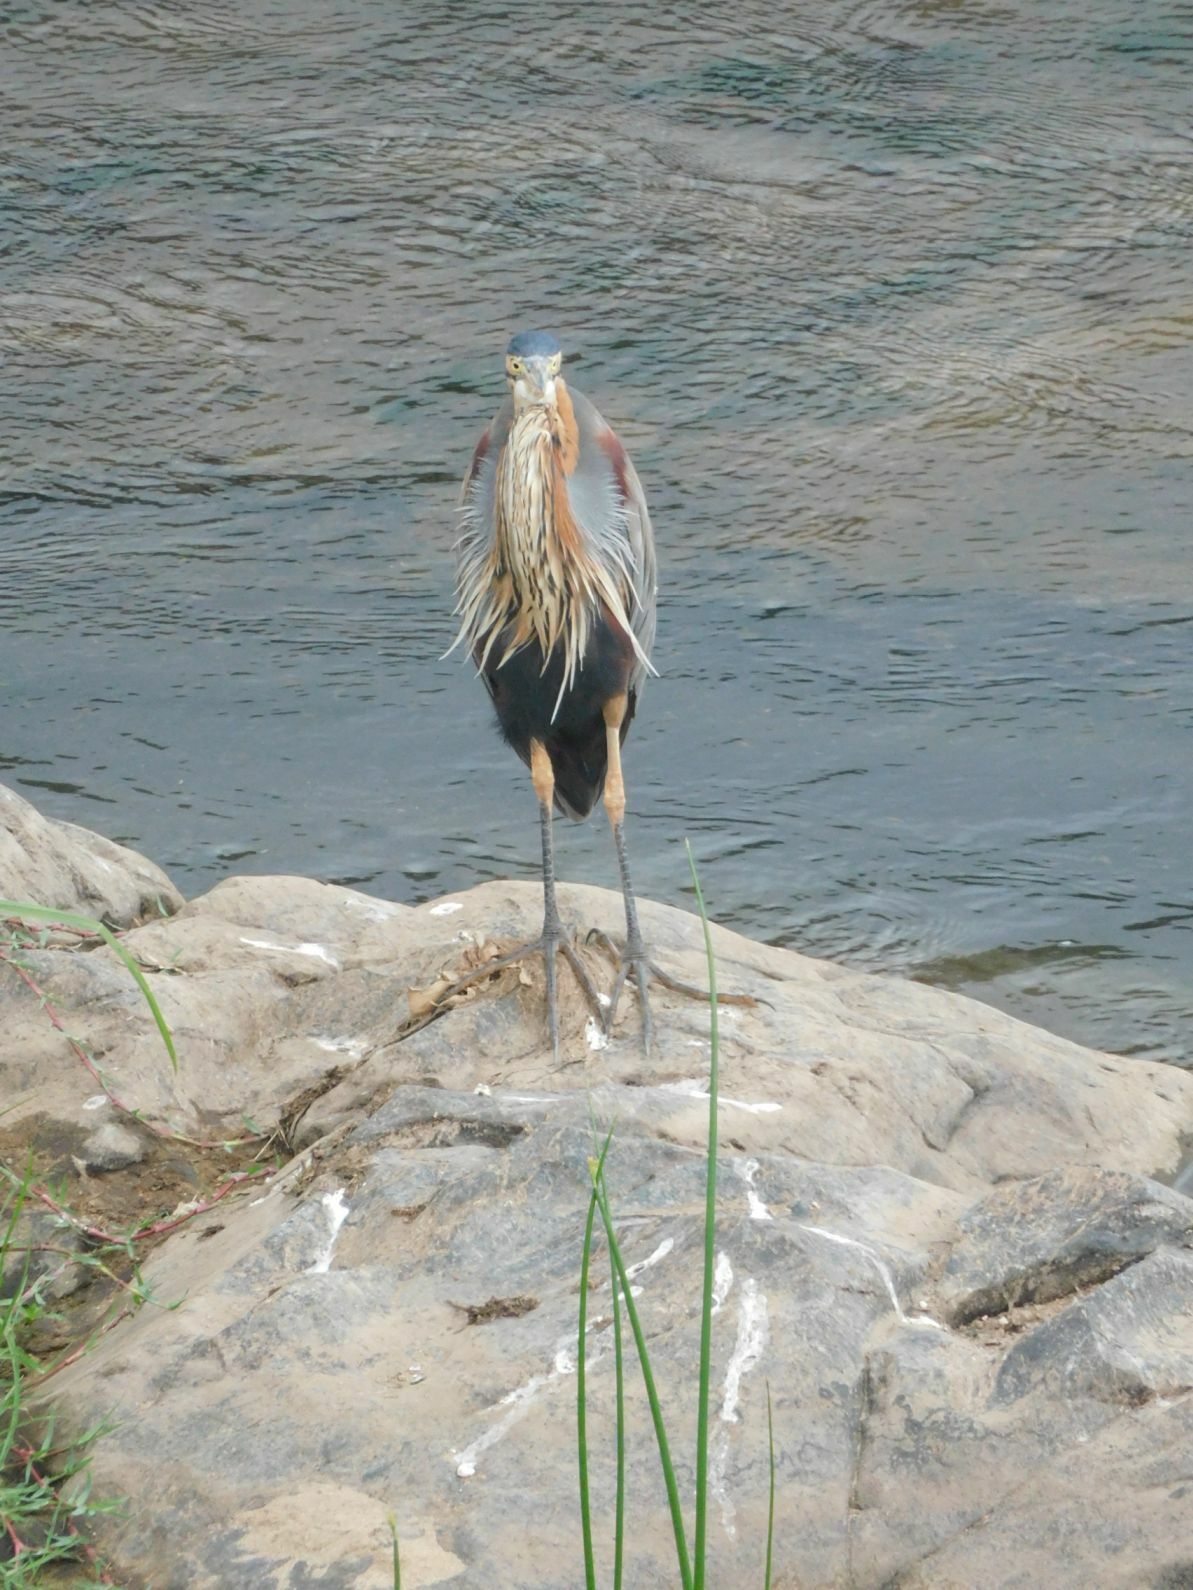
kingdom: Animalia
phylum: Chordata
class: Aves
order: Pelecaniformes
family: Ardeidae
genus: Ardea
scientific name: Ardea purpurea
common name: Purple heron
